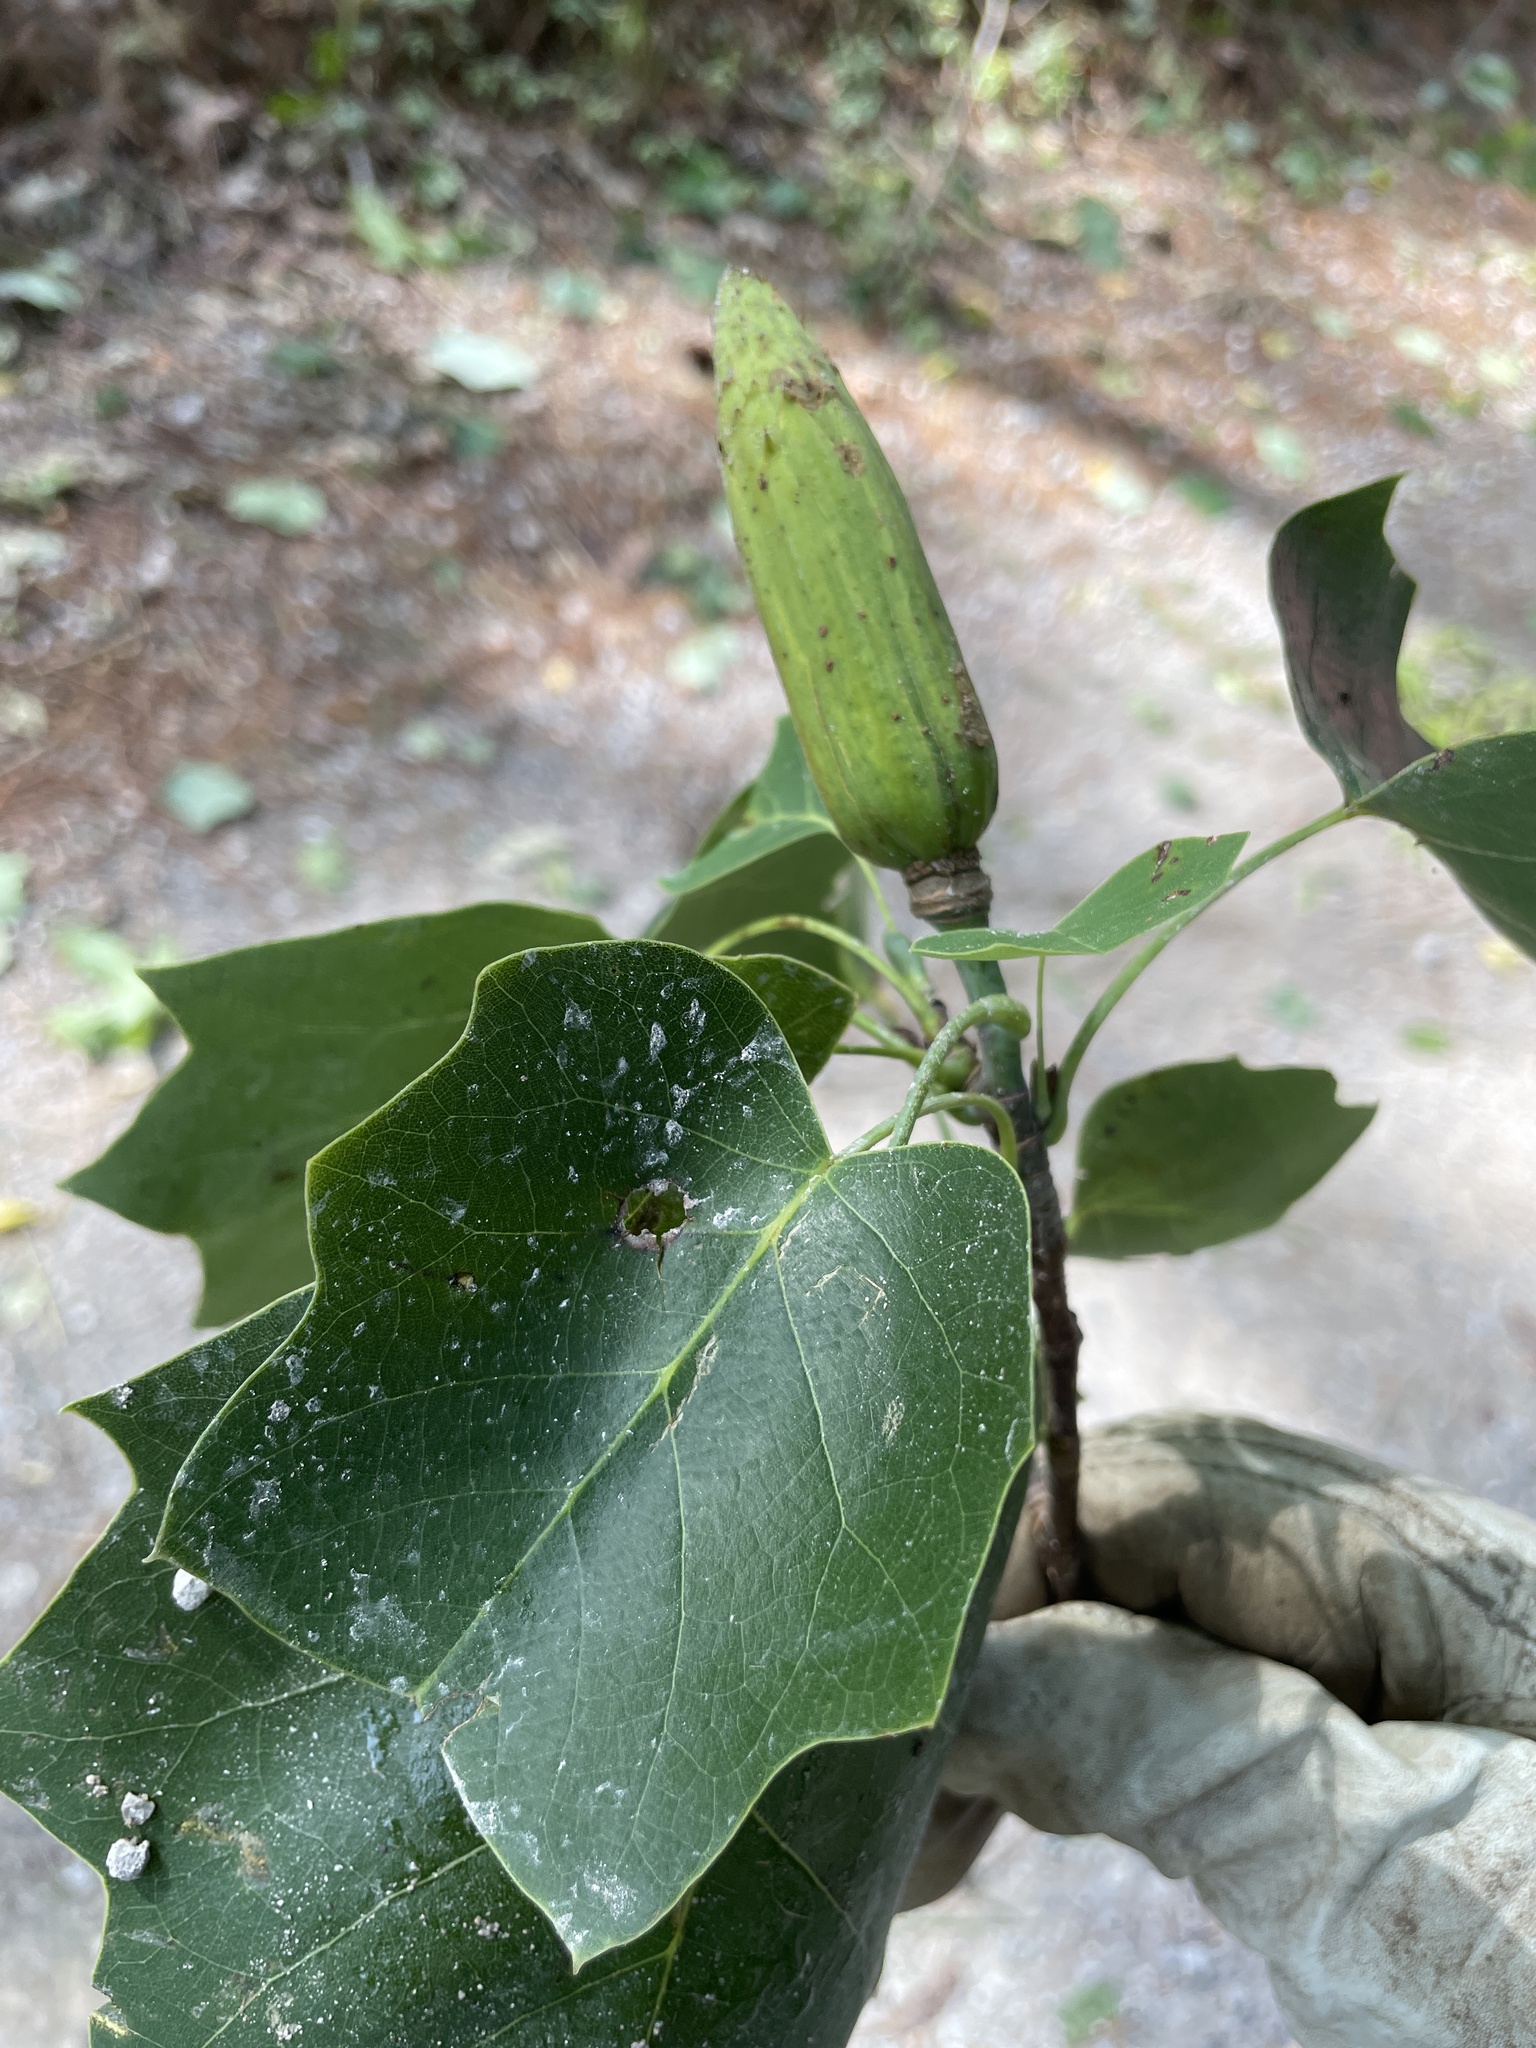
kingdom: Plantae
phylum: Tracheophyta
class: Magnoliopsida
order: Magnoliales
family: Magnoliaceae
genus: Liriodendron
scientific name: Liriodendron tulipifera
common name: Tulip tree
